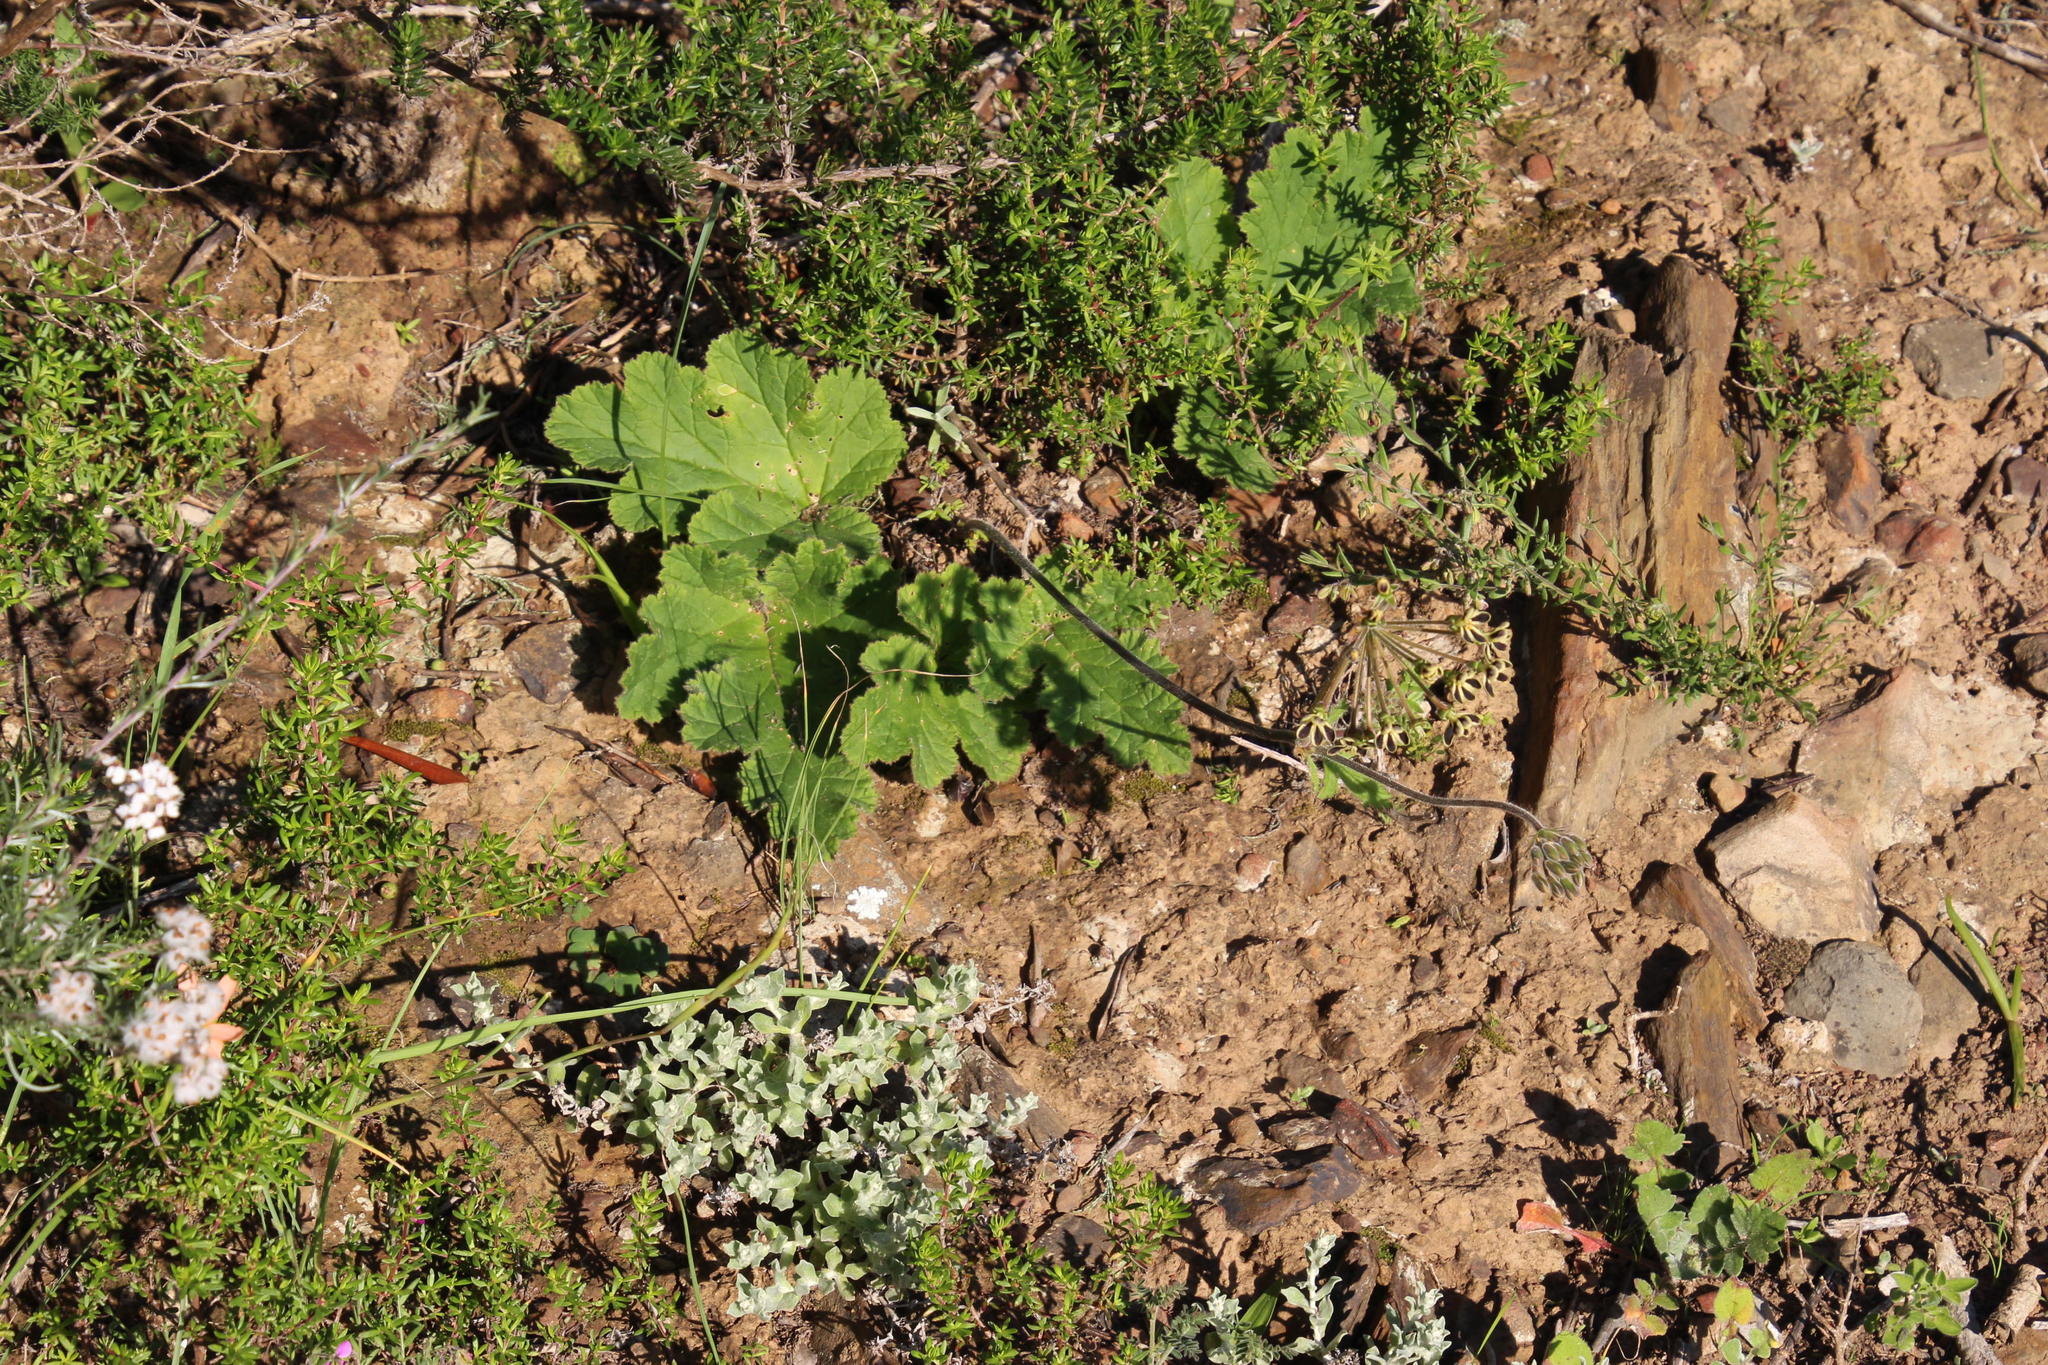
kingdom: Plantae
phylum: Tracheophyta
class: Magnoliopsida
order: Geraniales
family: Geraniaceae
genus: Pelargonium
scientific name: Pelargonium lobatum
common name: Vine-leaf pelargonium
